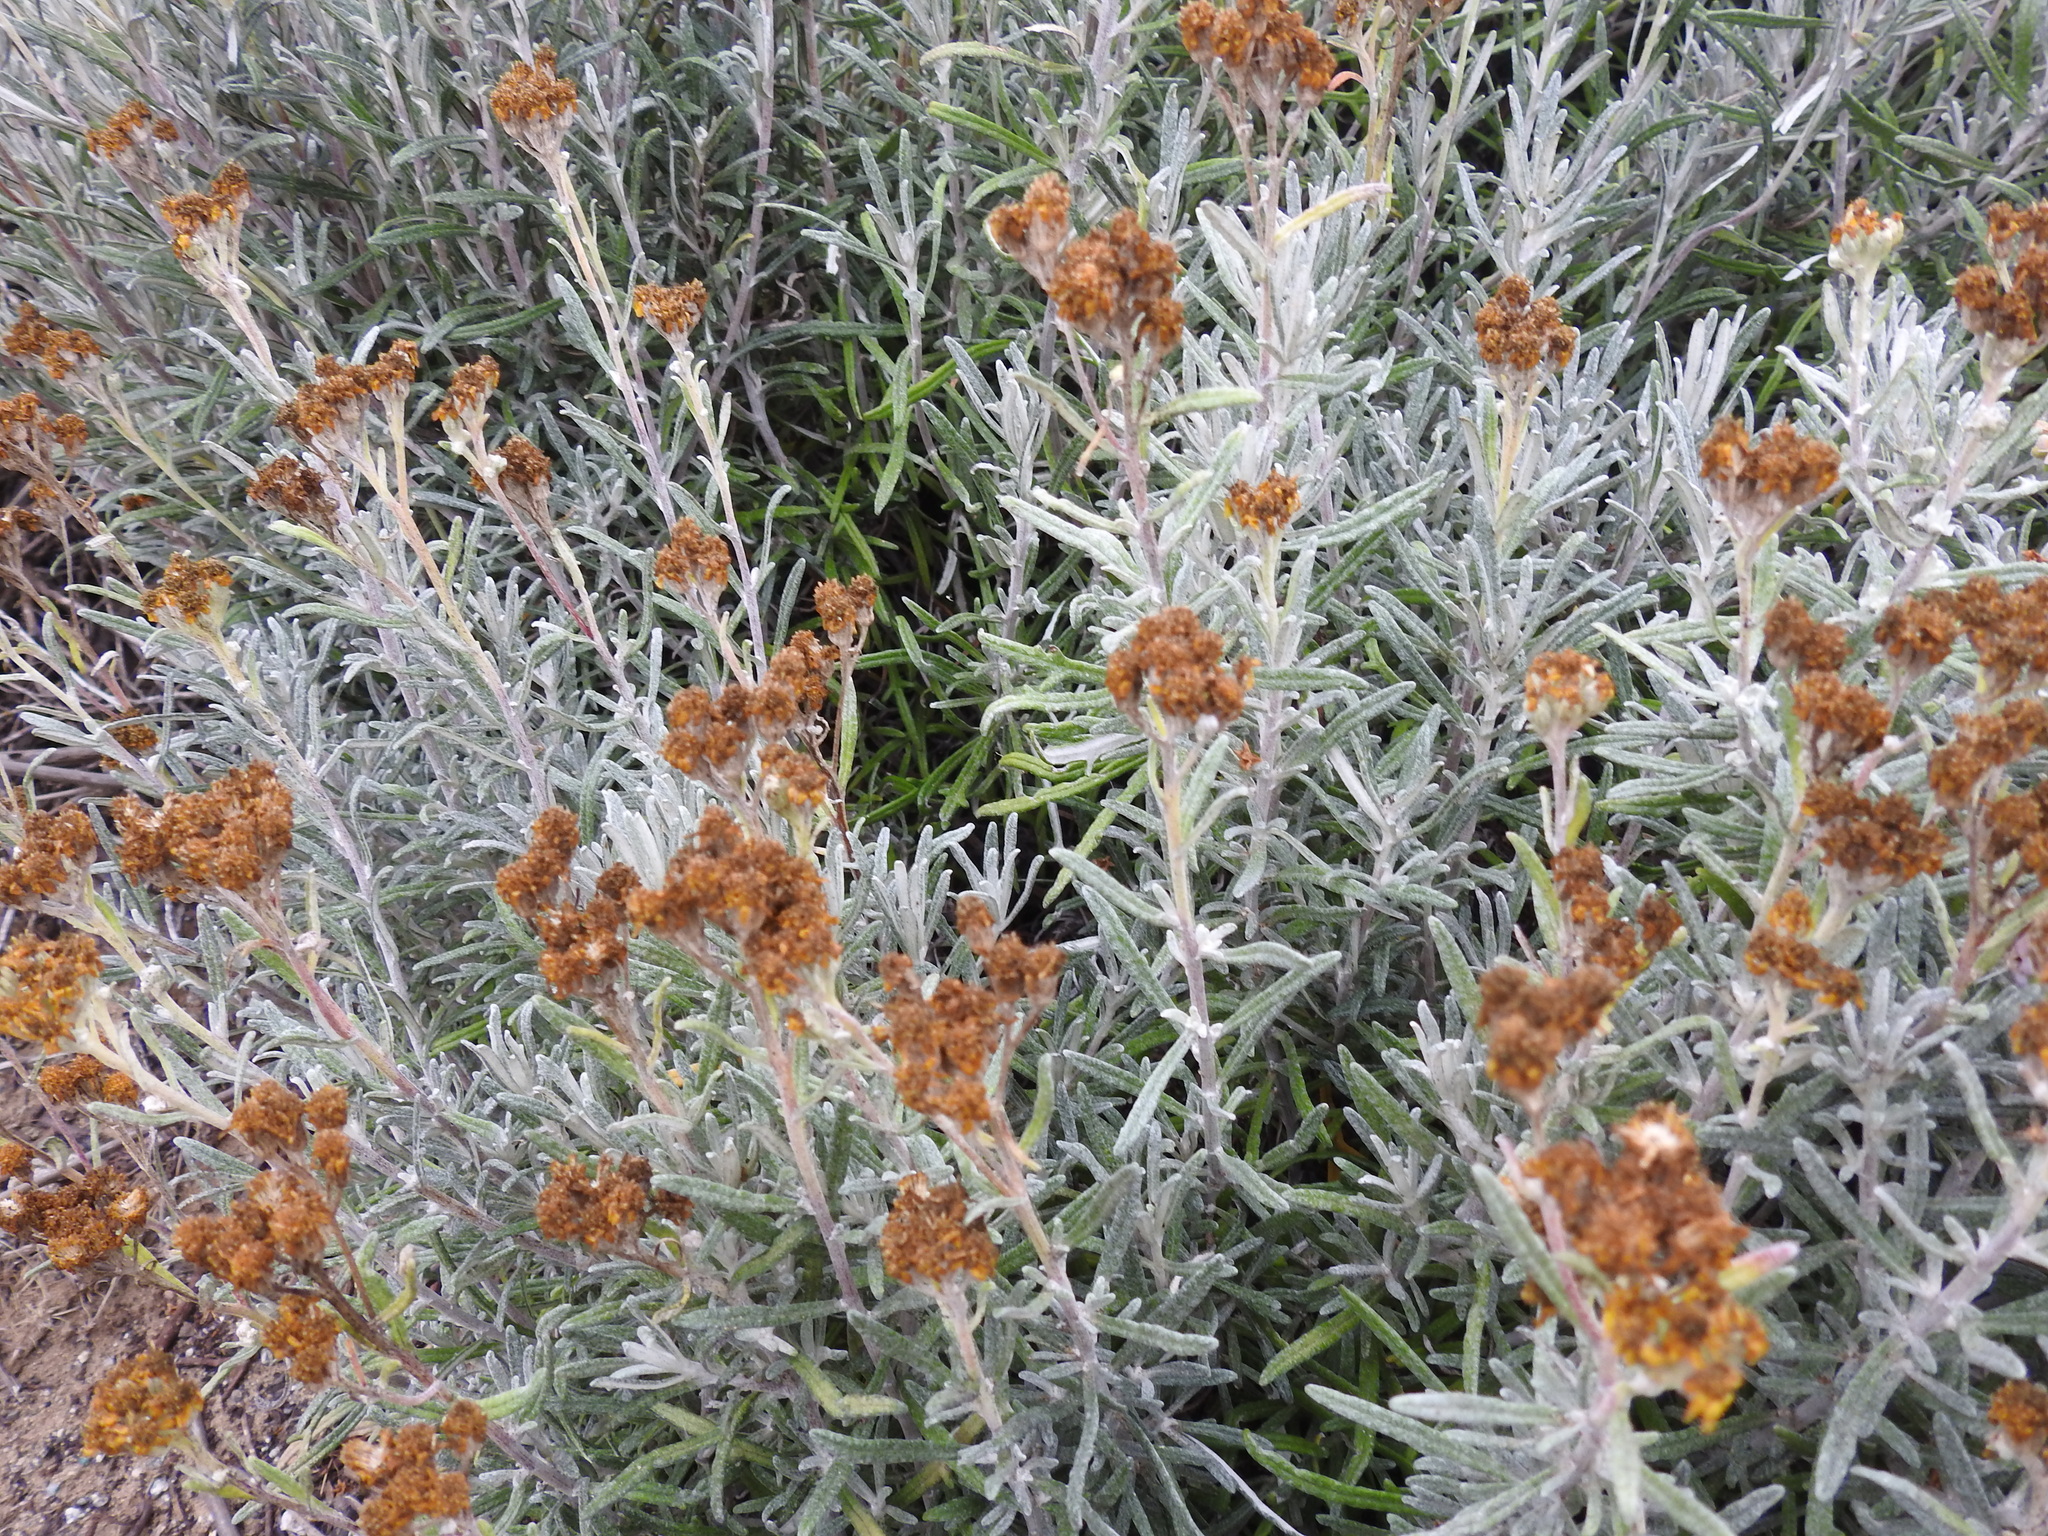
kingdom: Plantae
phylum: Tracheophyta
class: Magnoliopsida
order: Asterales
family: Asteraceae
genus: Eriophyllum
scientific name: Eriophyllum staechadifolium
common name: Lizardtail
